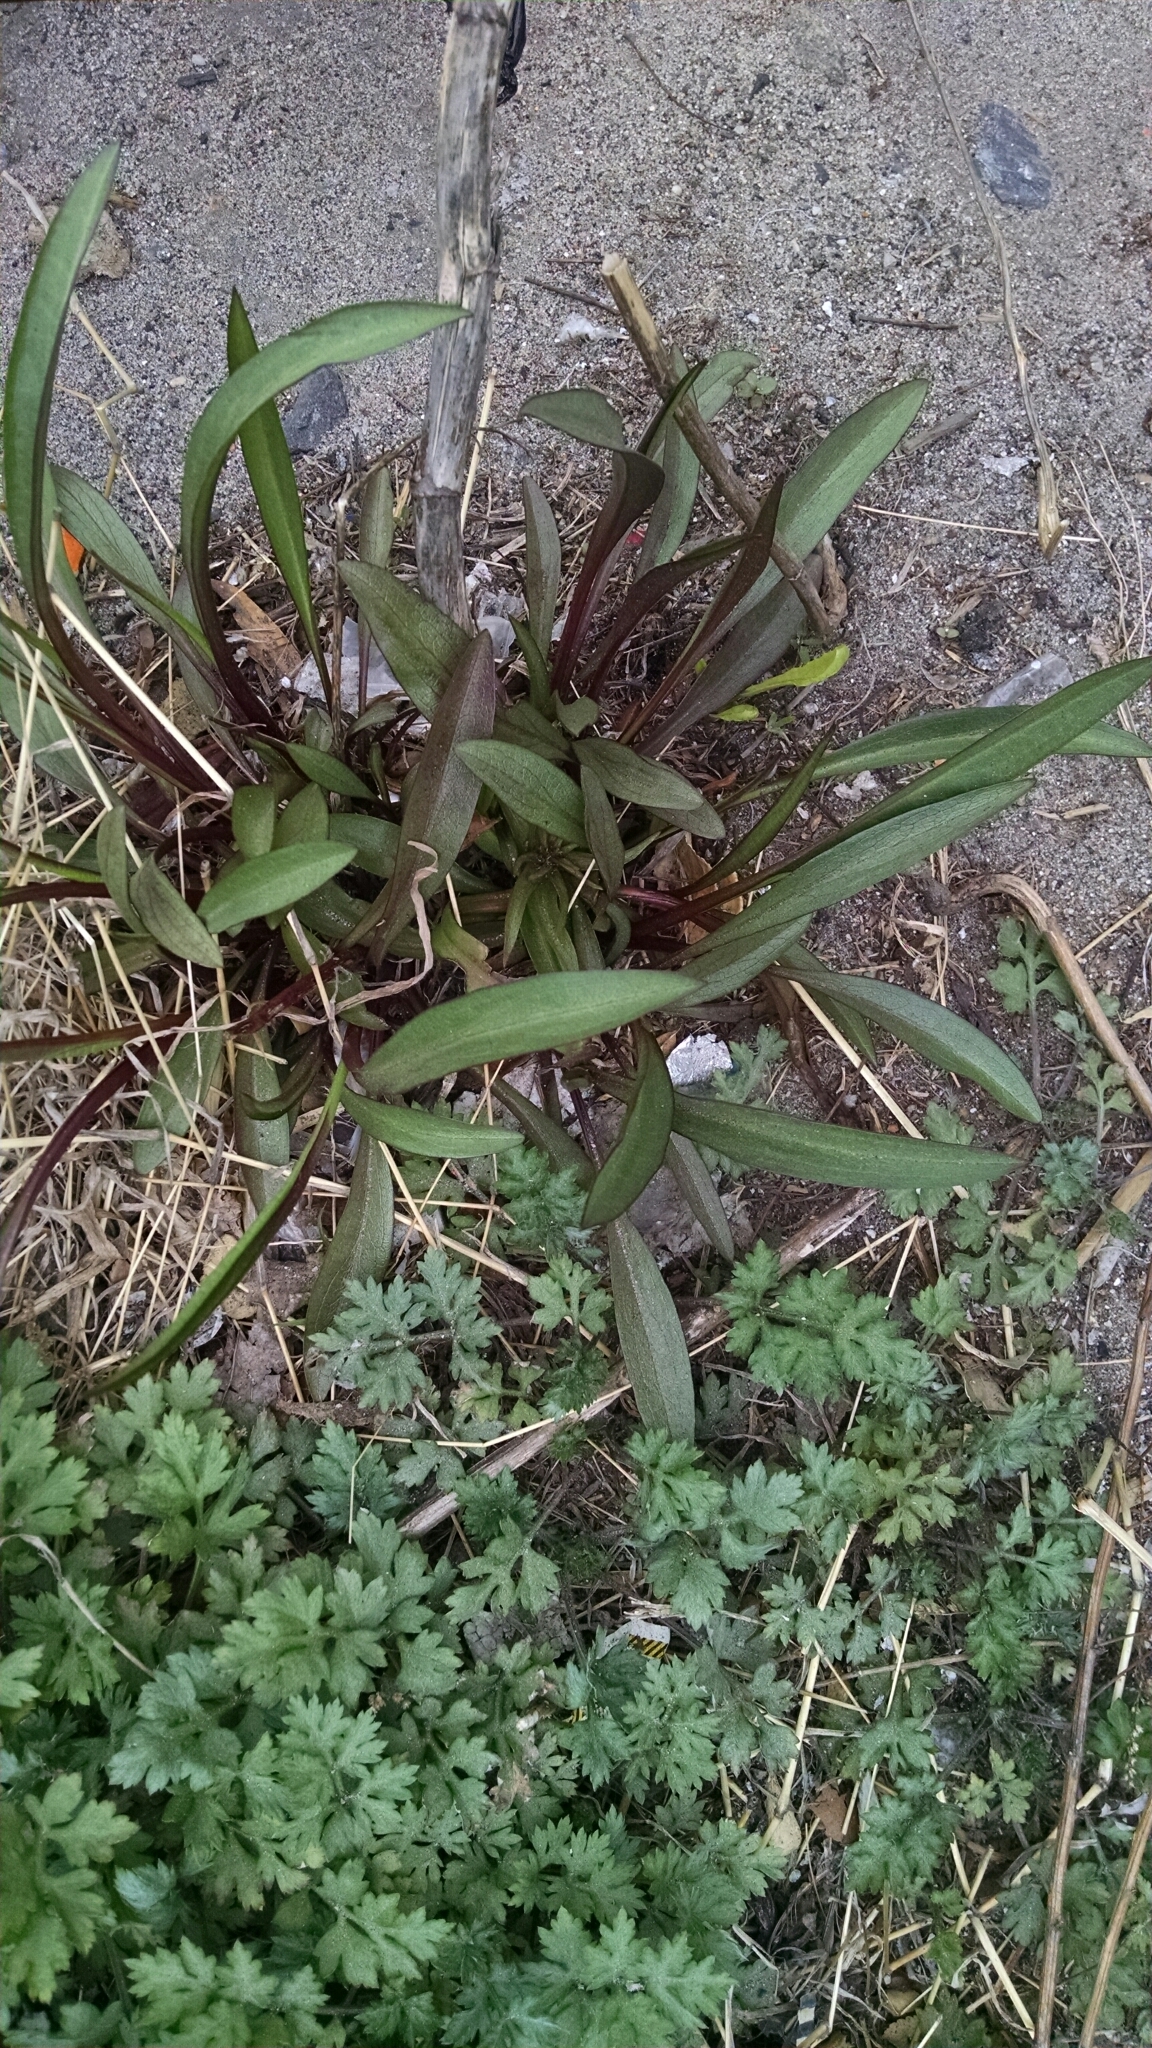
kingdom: Plantae
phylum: Tracheophyta
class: Magnoliopsida
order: Asterales
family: Asteraceae
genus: Solidago
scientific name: Solidago sempervirens
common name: Salt-marsh goldenrod
